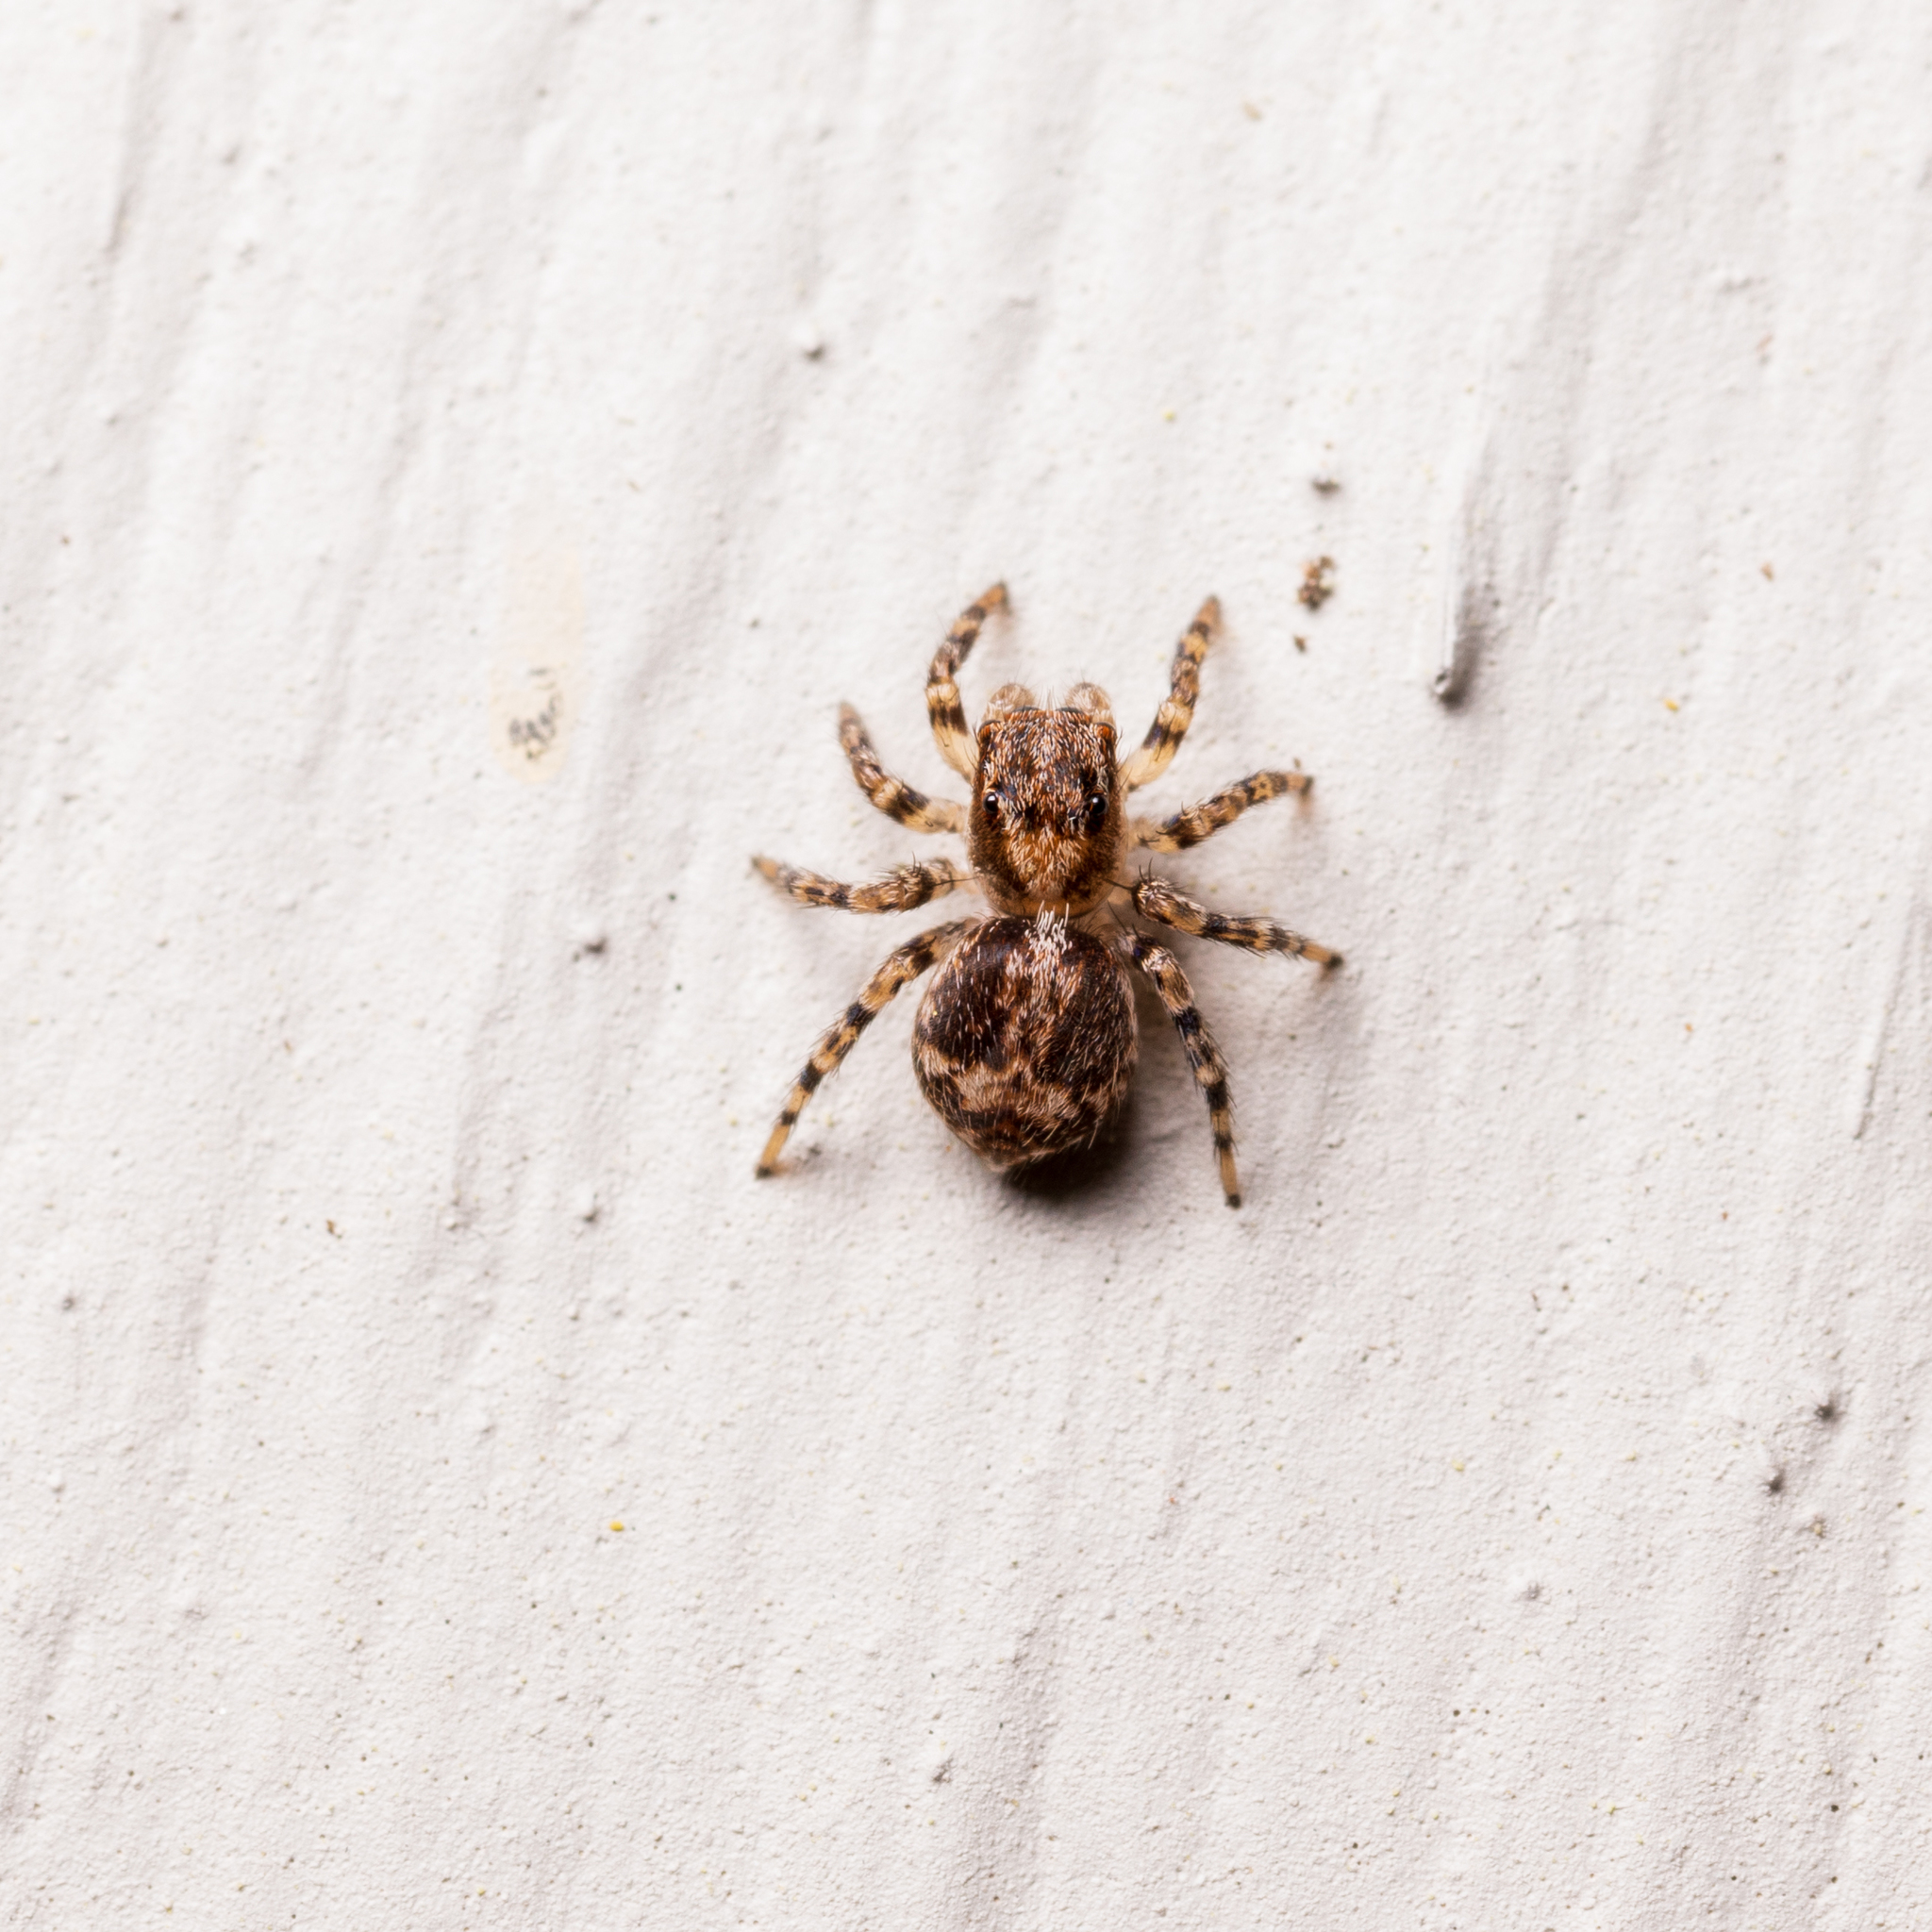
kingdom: Animalia
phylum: Arthropoda
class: Arachnida
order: Araneae
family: Salticidae
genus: Naphrys
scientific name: Naphrys pulex
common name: Flea jumping spider
